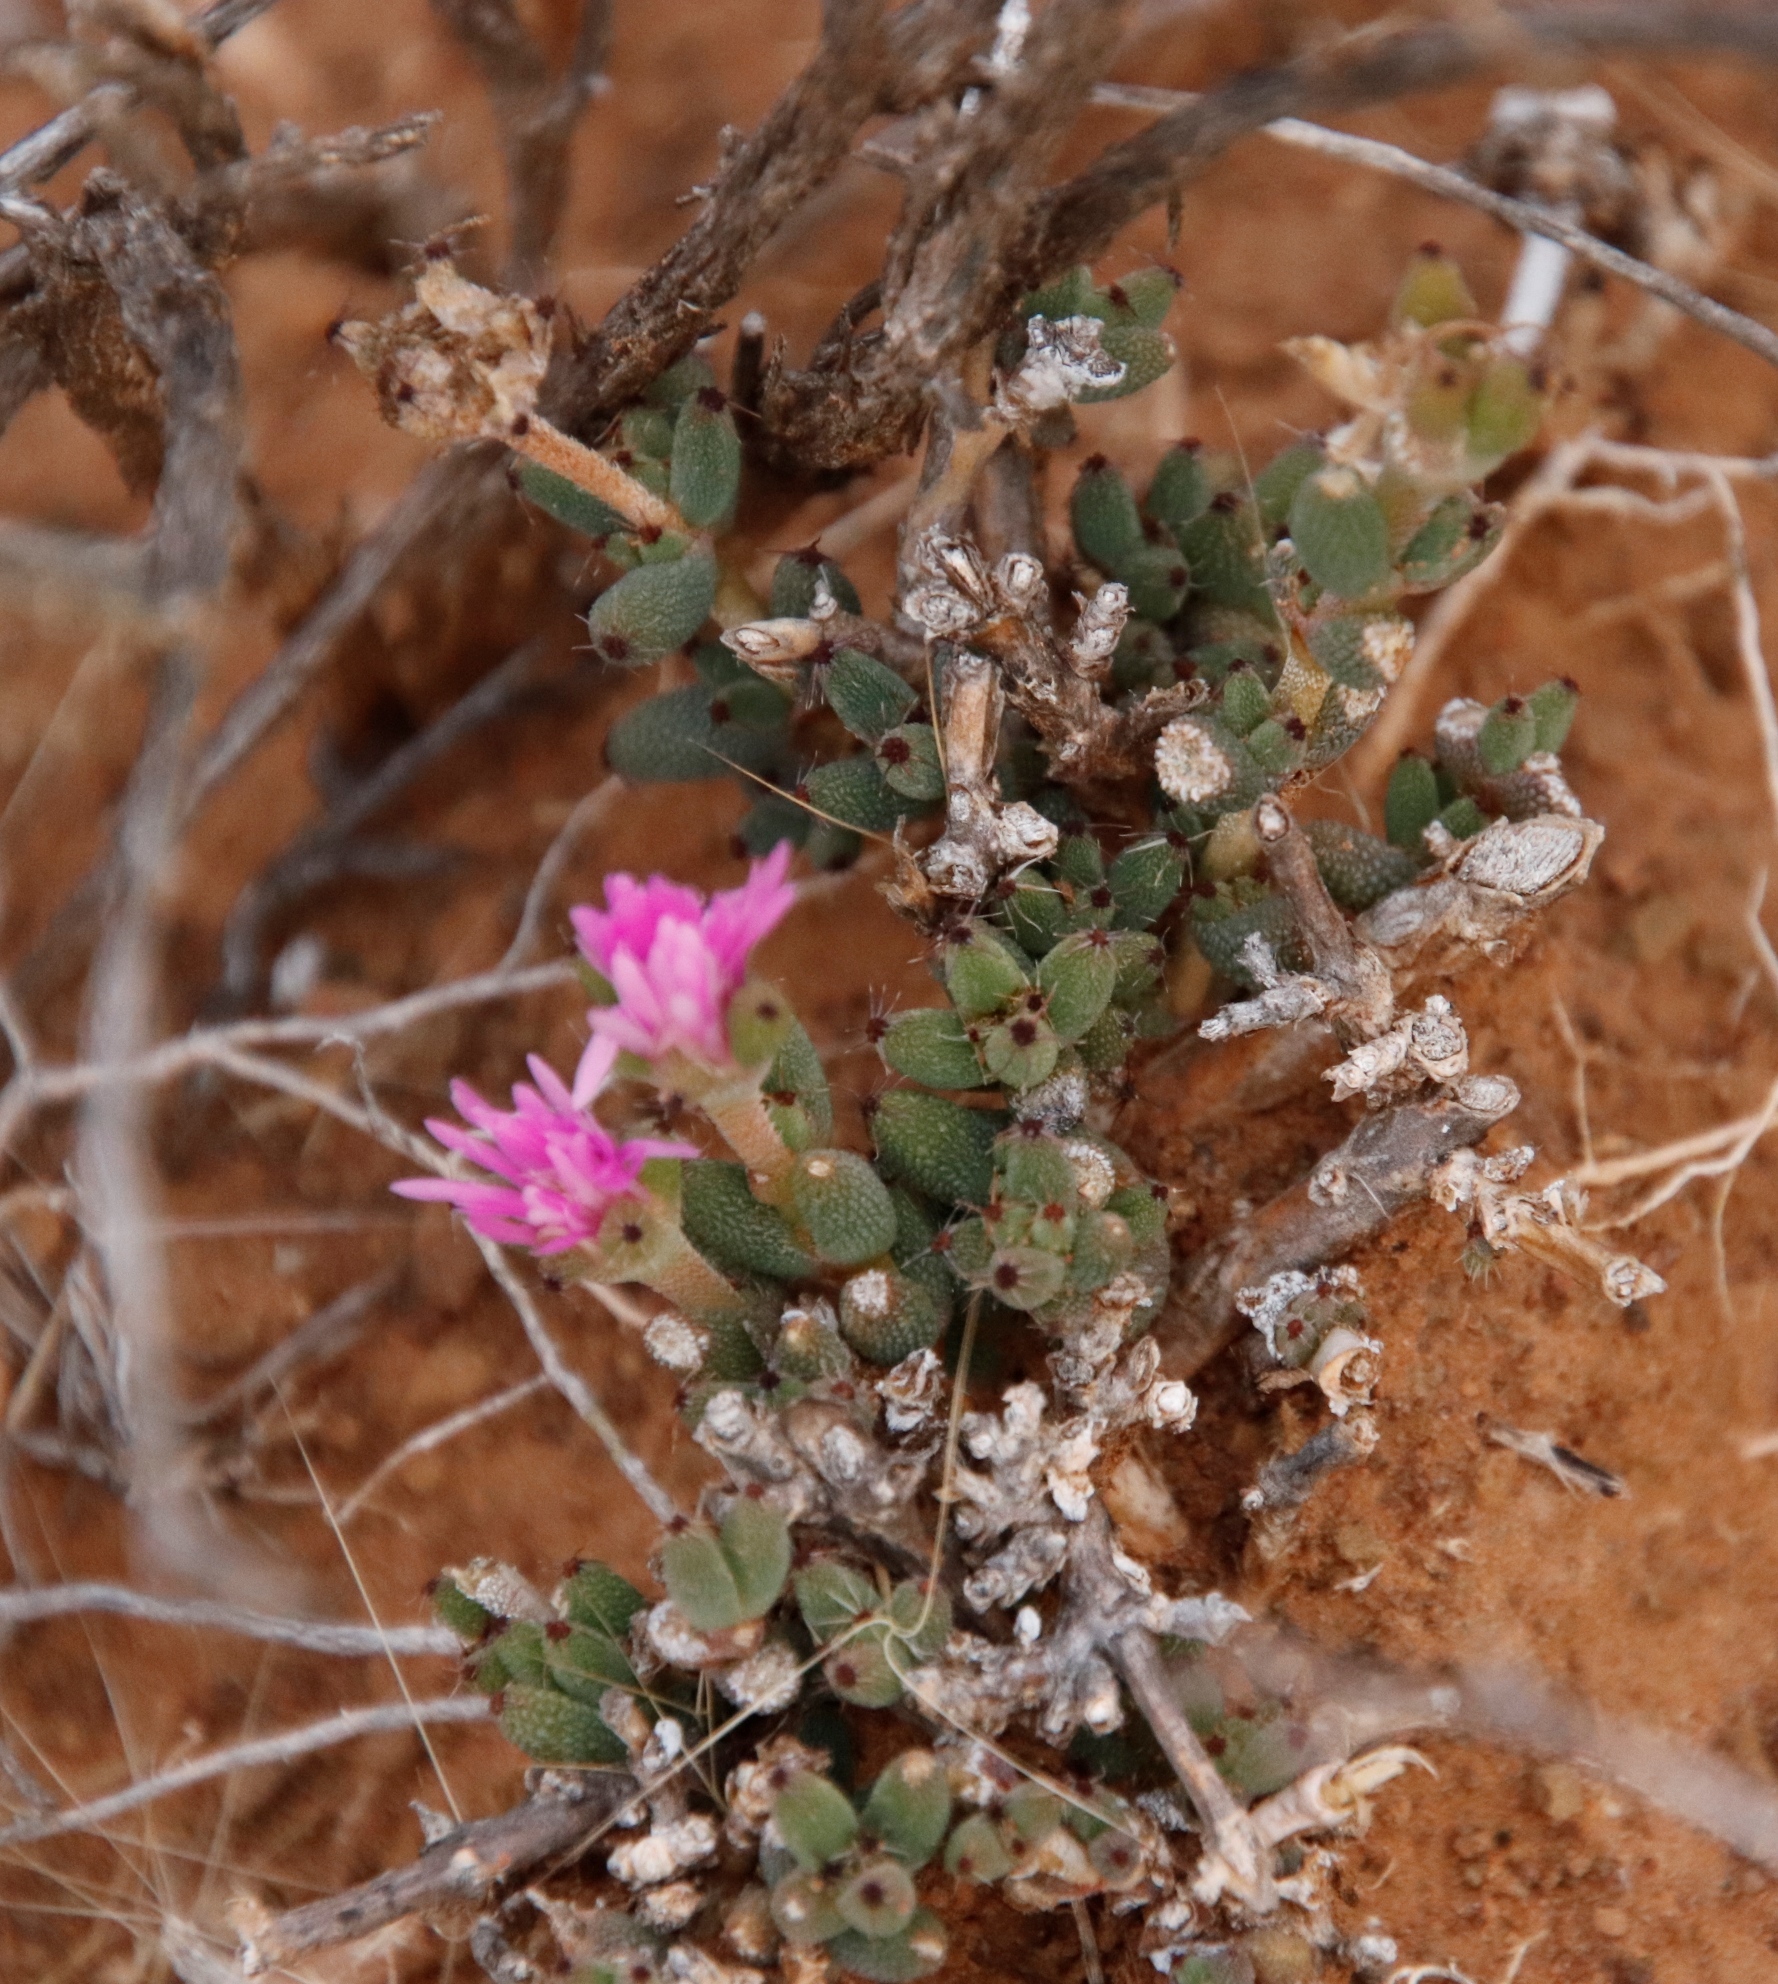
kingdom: Plantae
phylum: Tracheophyta
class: Magnoliopsida
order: Caryophyllales
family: Aizoaceae
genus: Trichodiadema
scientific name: Trichodiadema setuliferum
